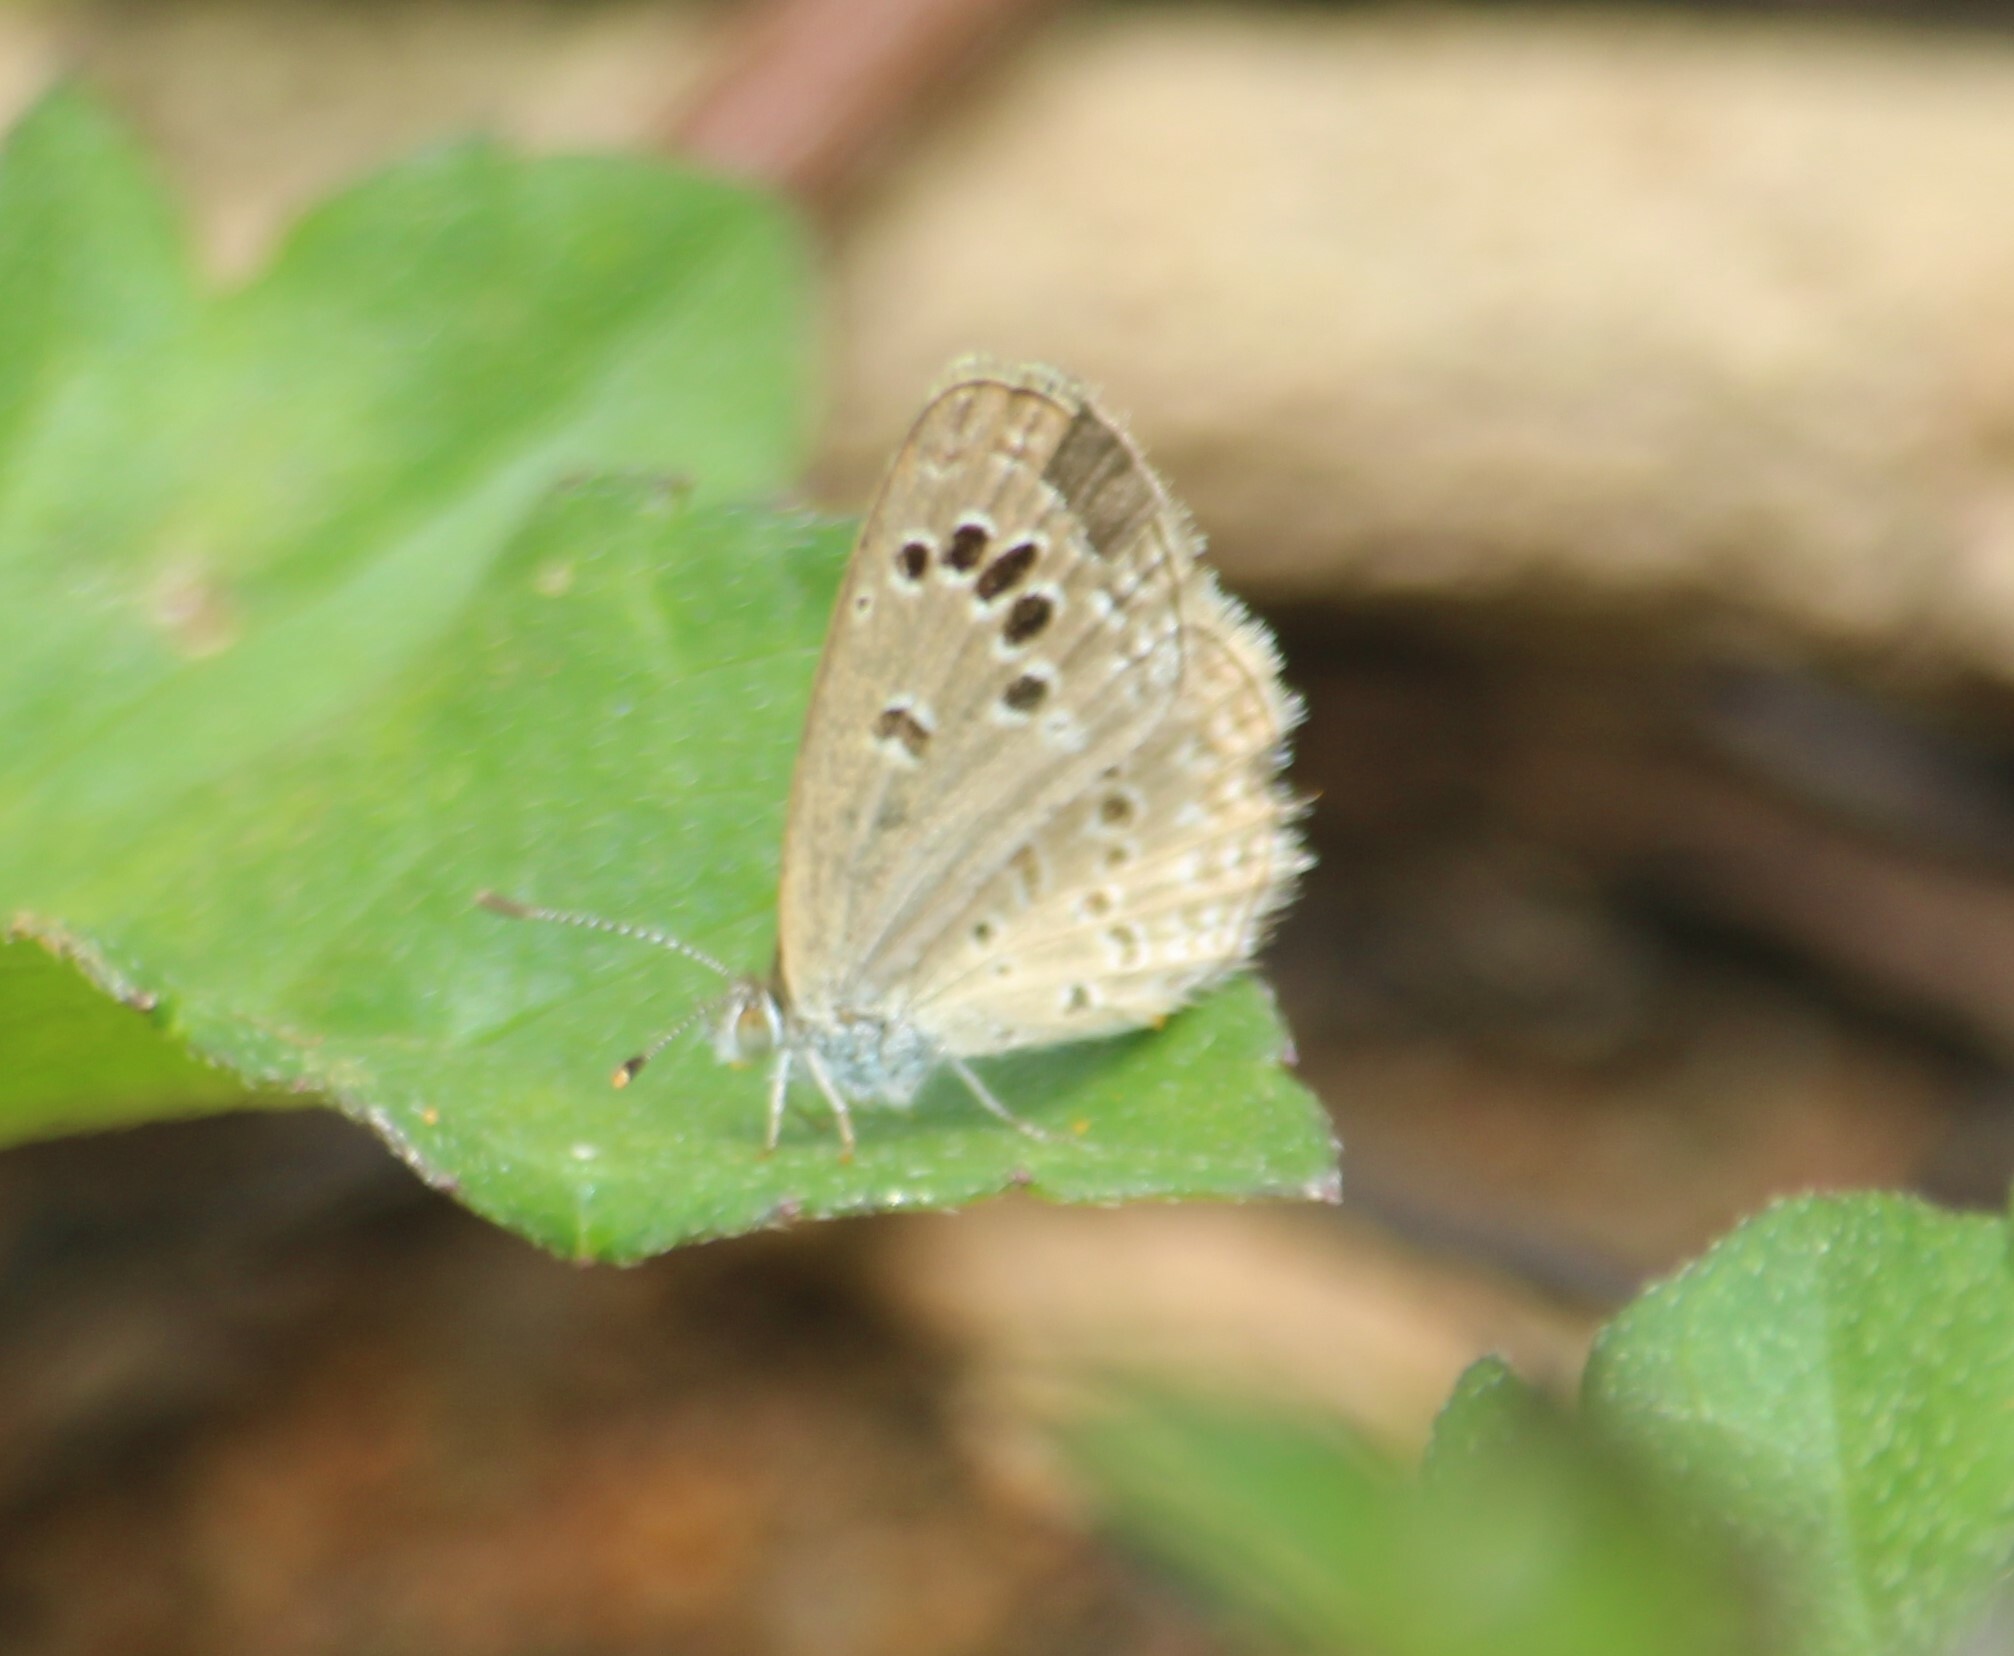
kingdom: Animalia
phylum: Arthropoda
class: Insecta
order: Lepidoptera
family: Lycaenidae
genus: Zizina
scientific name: Zizina otis
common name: Lesser grass blue
